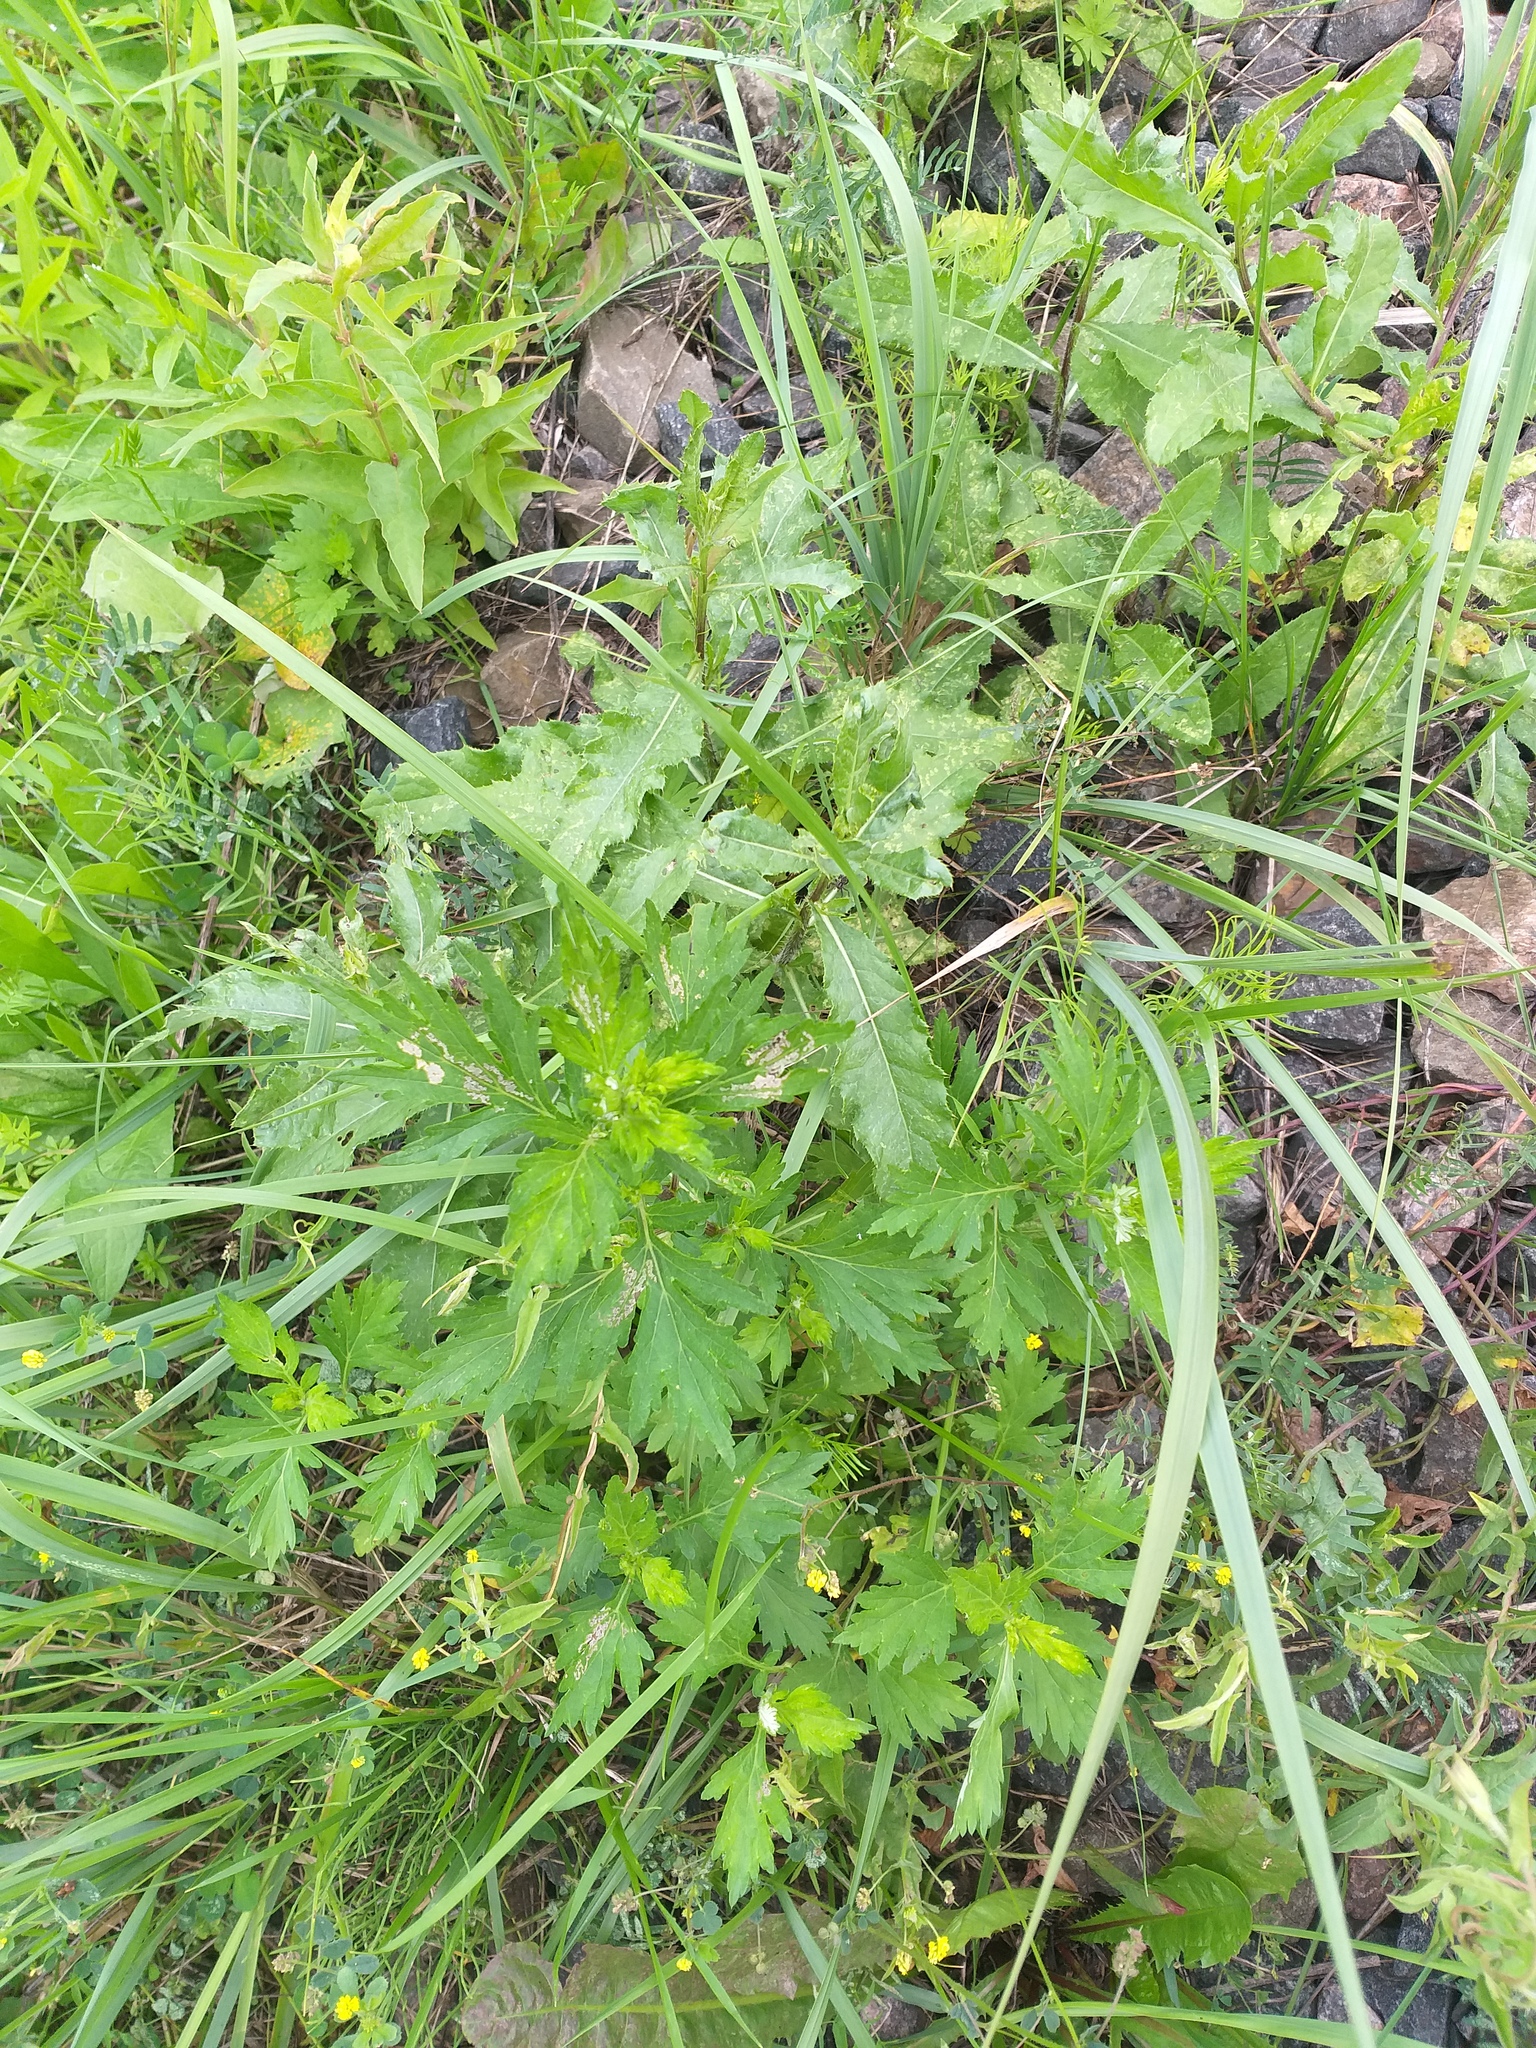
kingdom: Plantae
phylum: Tracheophyta
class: Magnoliopsida
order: Asterales
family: Asteraceae
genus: Artemisia
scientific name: Artemisia vulgaris
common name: Mugwort
